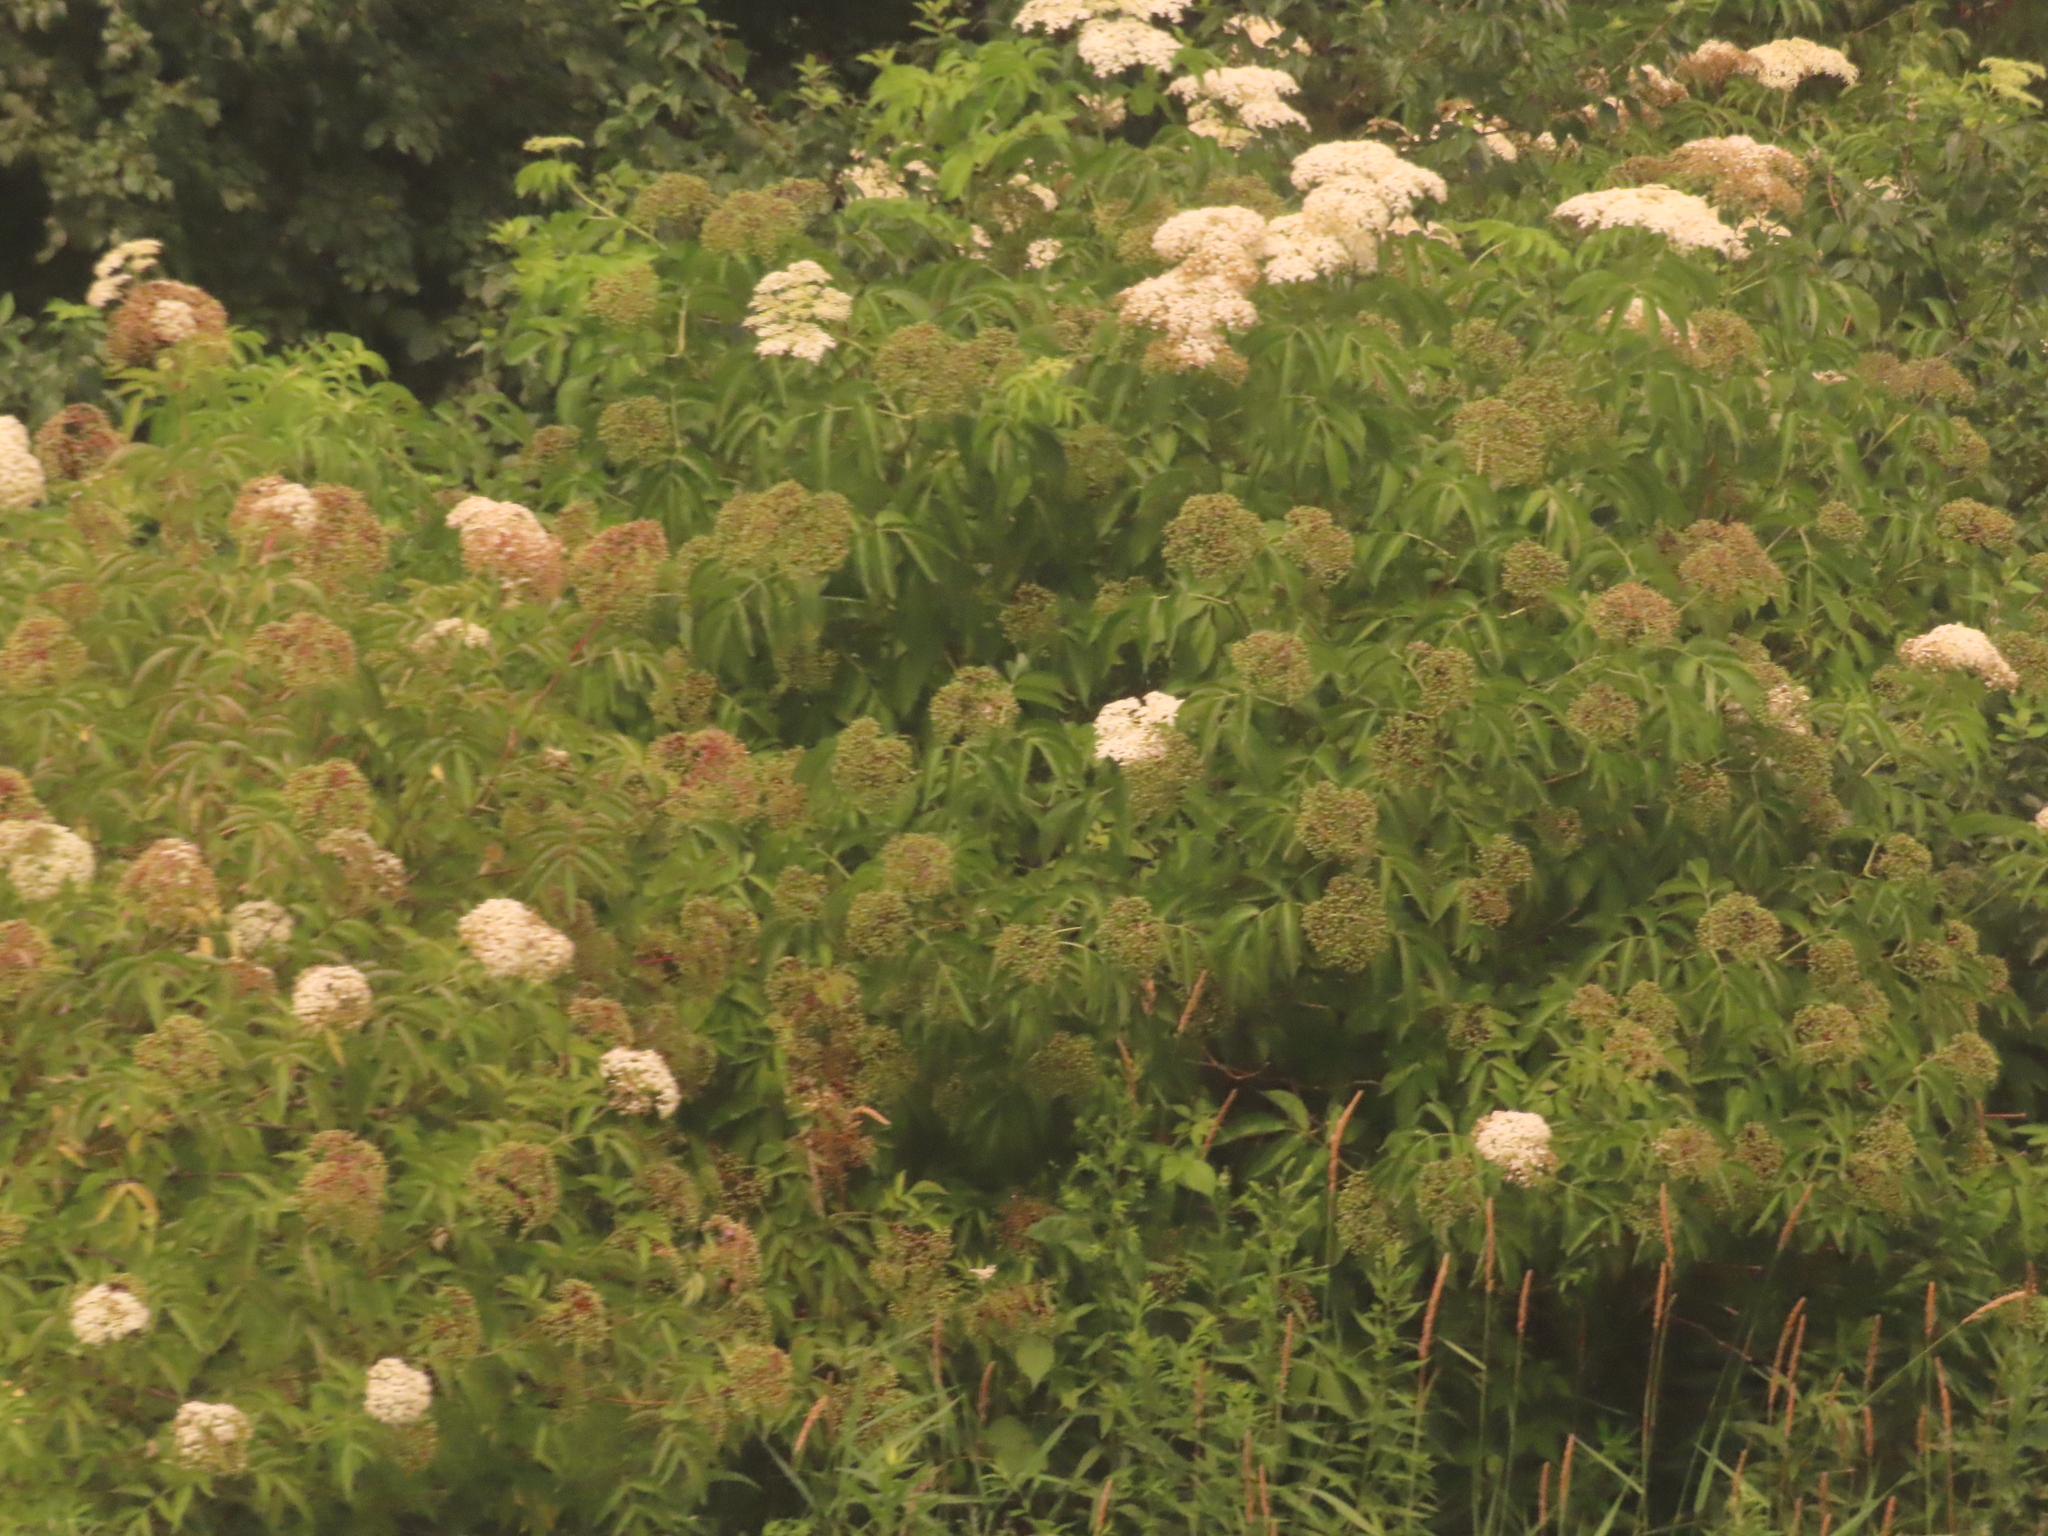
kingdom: Plantae
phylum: Tracheophyta
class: Magnoliopsida
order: Dipsacales
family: Viburnaceae
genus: Sambucus
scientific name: Sambucus canadensis
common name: American elder
